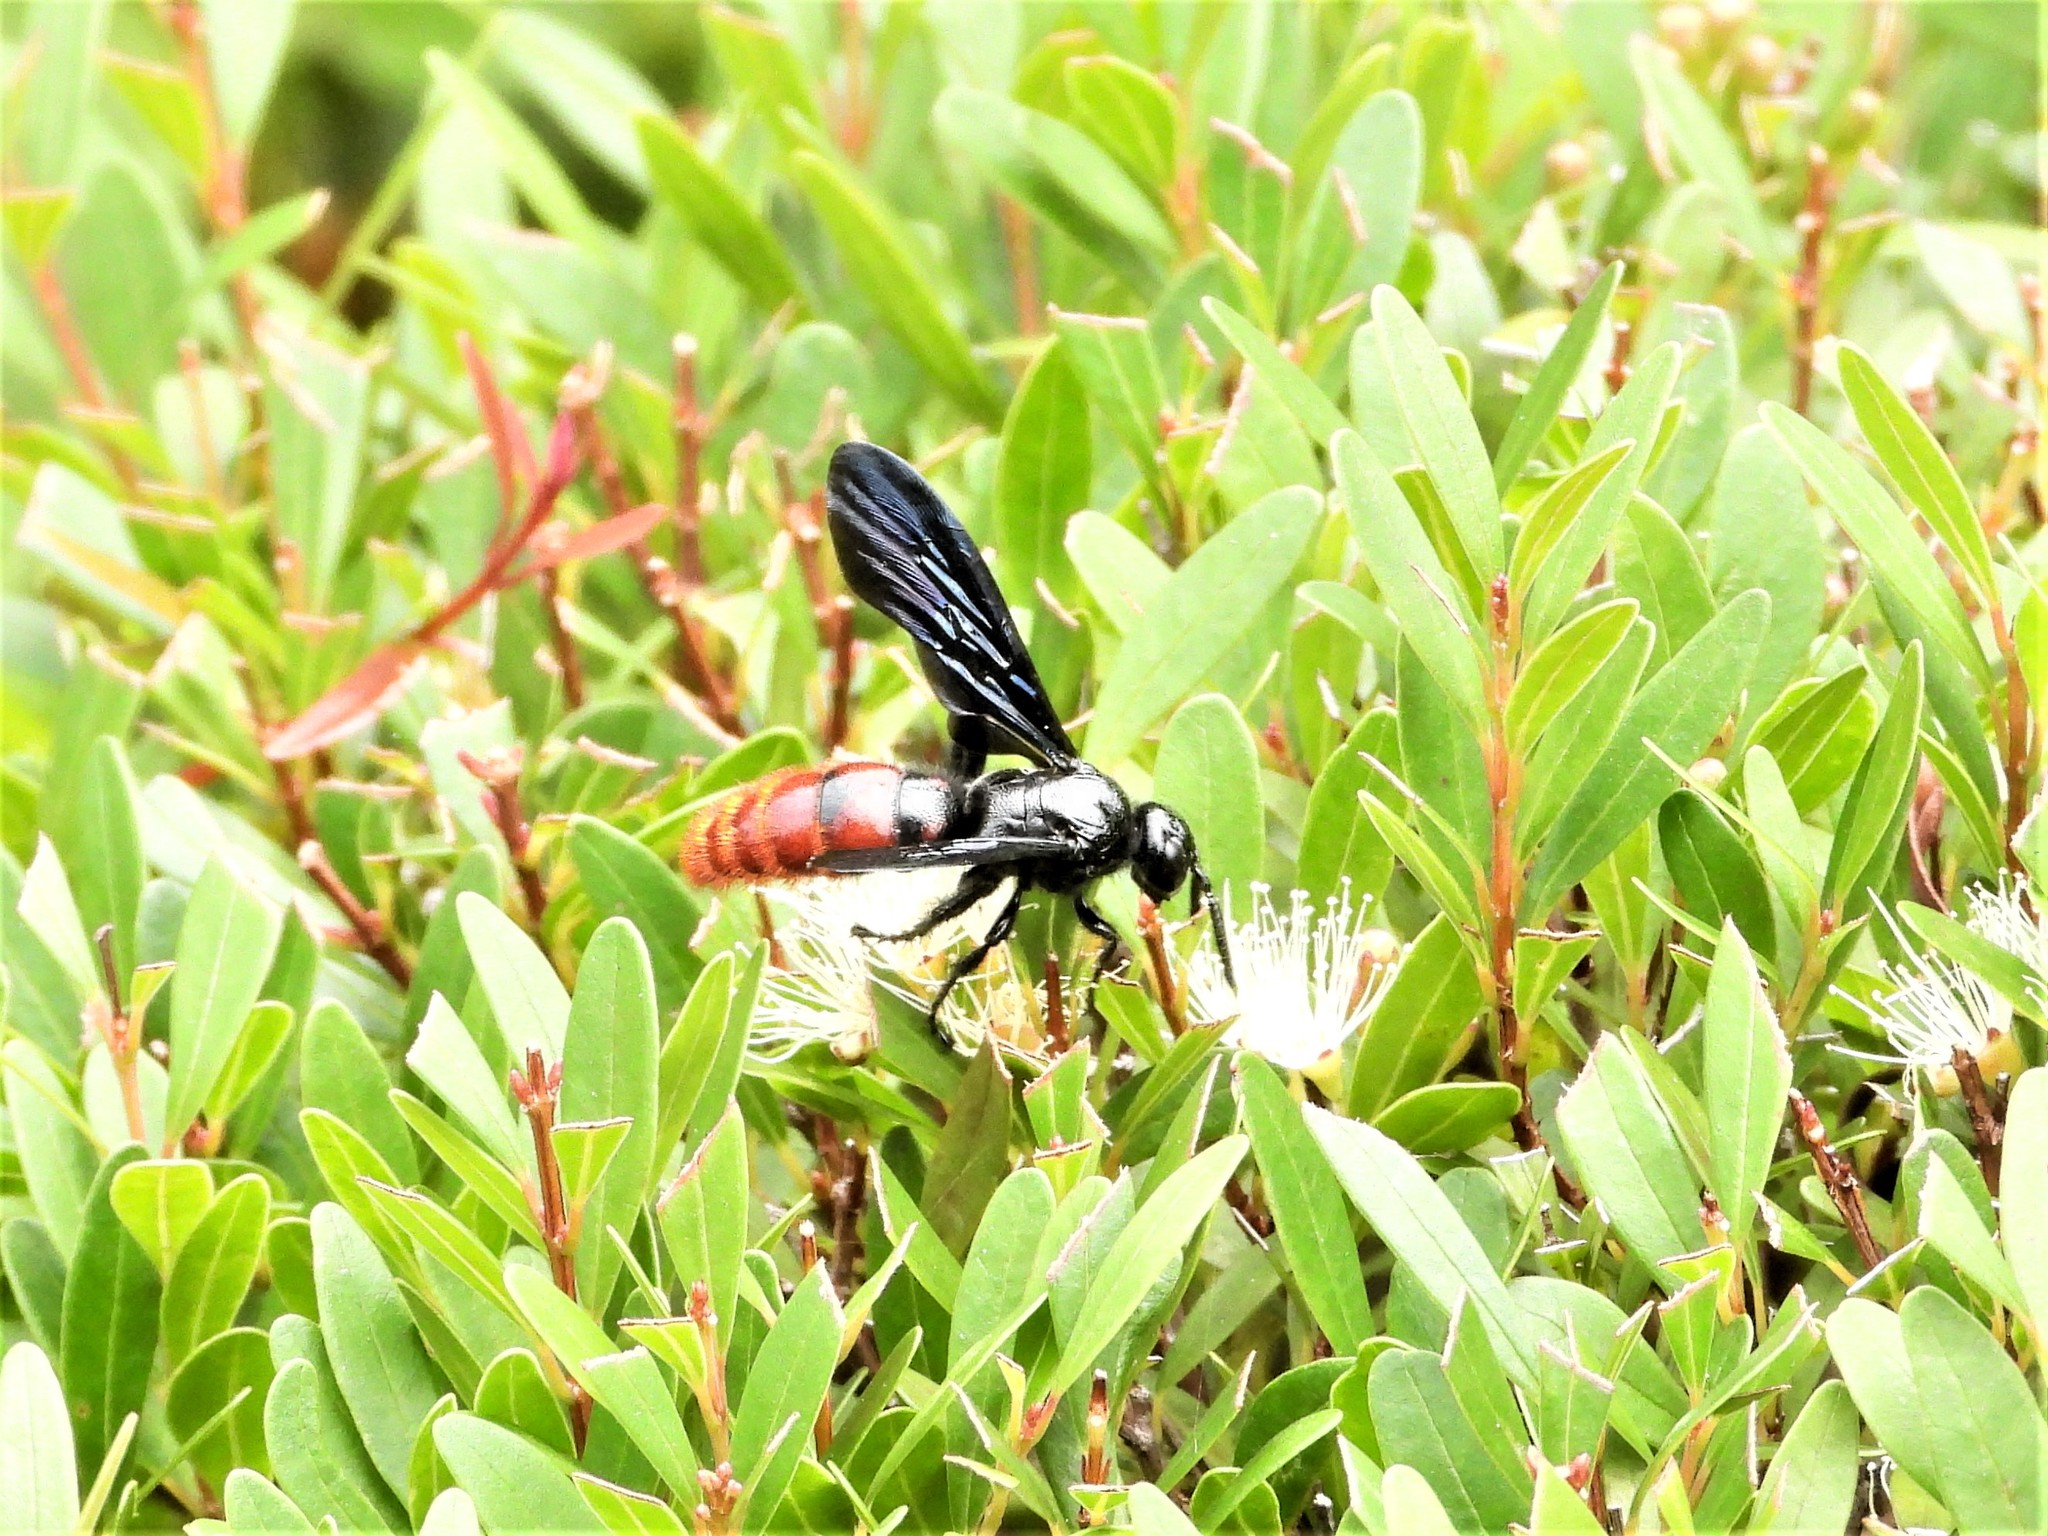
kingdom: Animalia
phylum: Arthropoda
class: Insecta
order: Hymenoptera
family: Scoliidae
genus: Liacos
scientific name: Liacos erythrosoma
